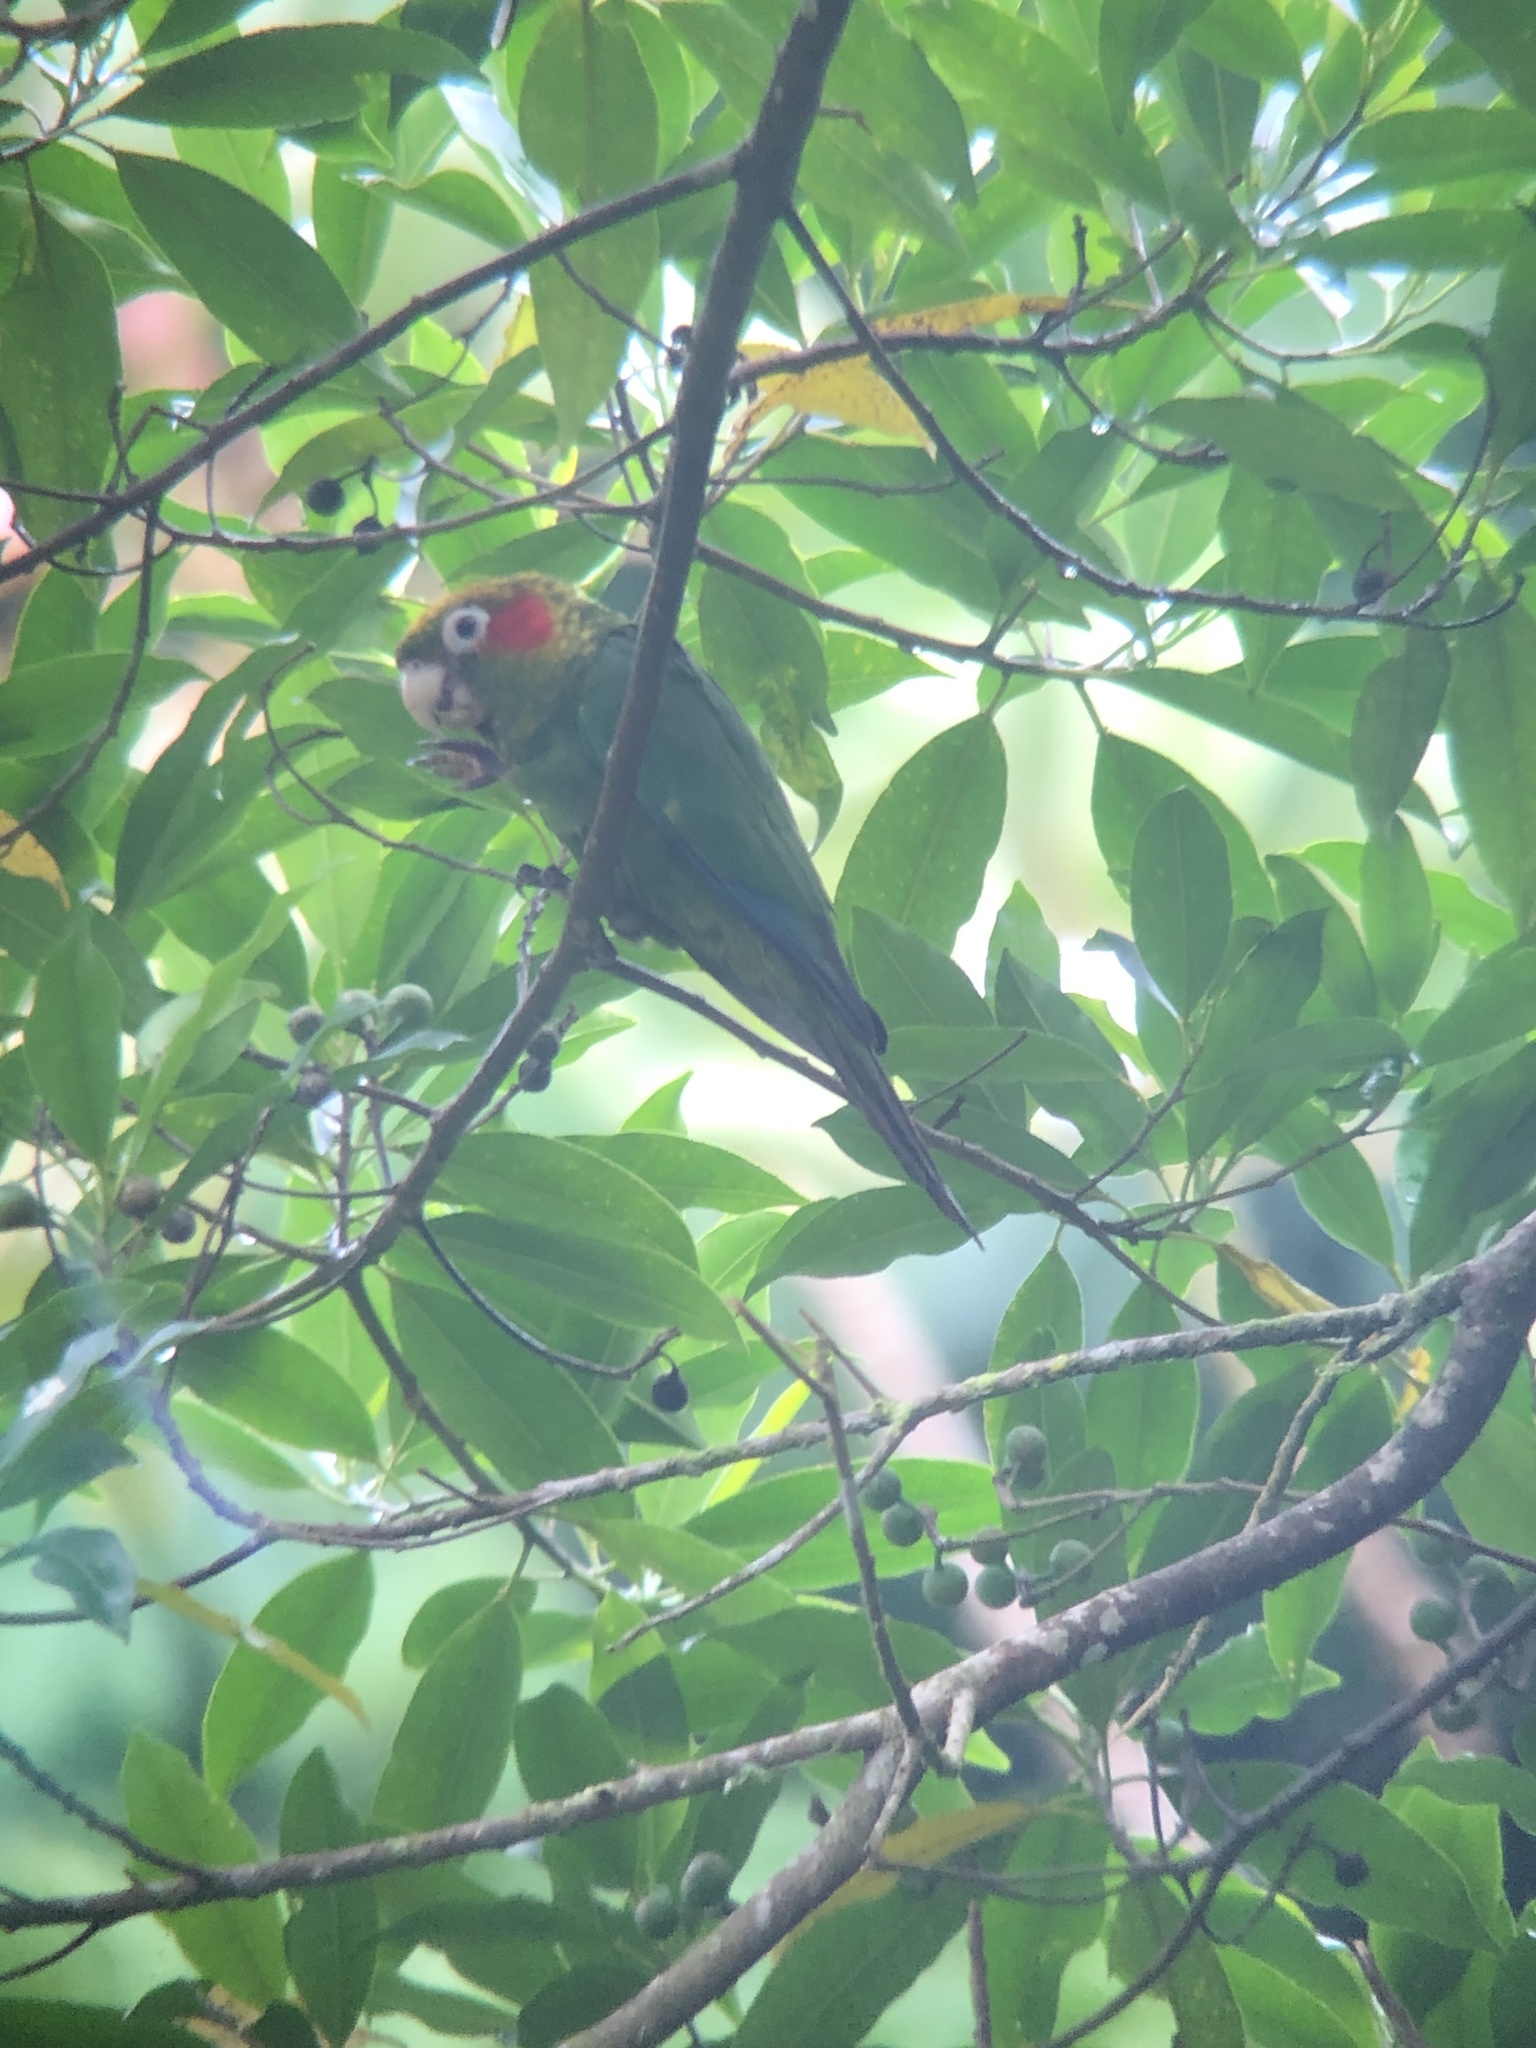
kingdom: Animalia
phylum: Chordata
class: Aves
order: Psittaciformes
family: Psittacidae
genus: Pyrrhura
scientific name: Pyrrhura hoffmanni
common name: Sulphur-winged parakeet
